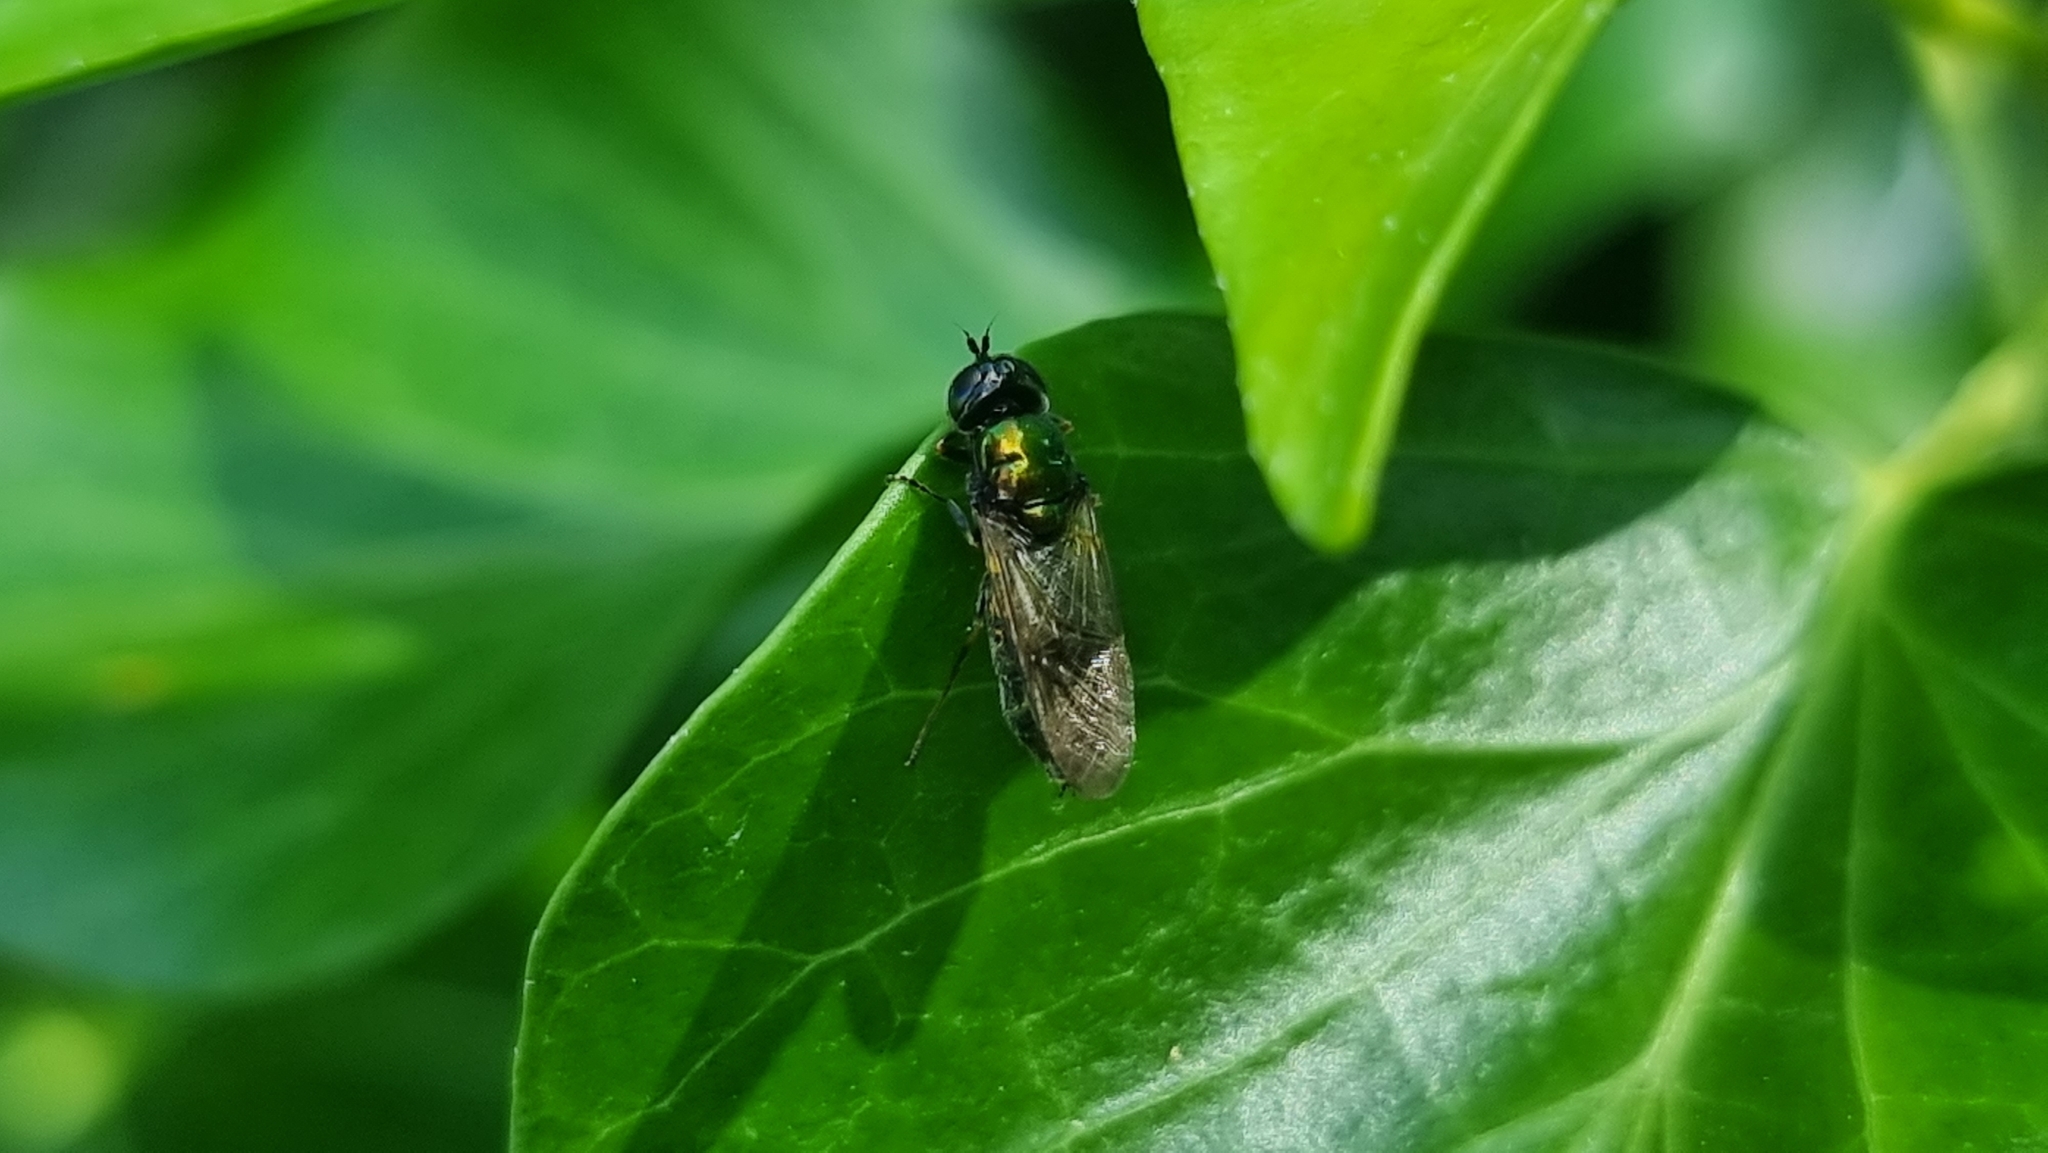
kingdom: Animalia
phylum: Arthropoda
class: Insecta
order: Diptera
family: Stratiomyidae
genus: Chloromyia
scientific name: Chloromyia formosa
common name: Soldier fly
